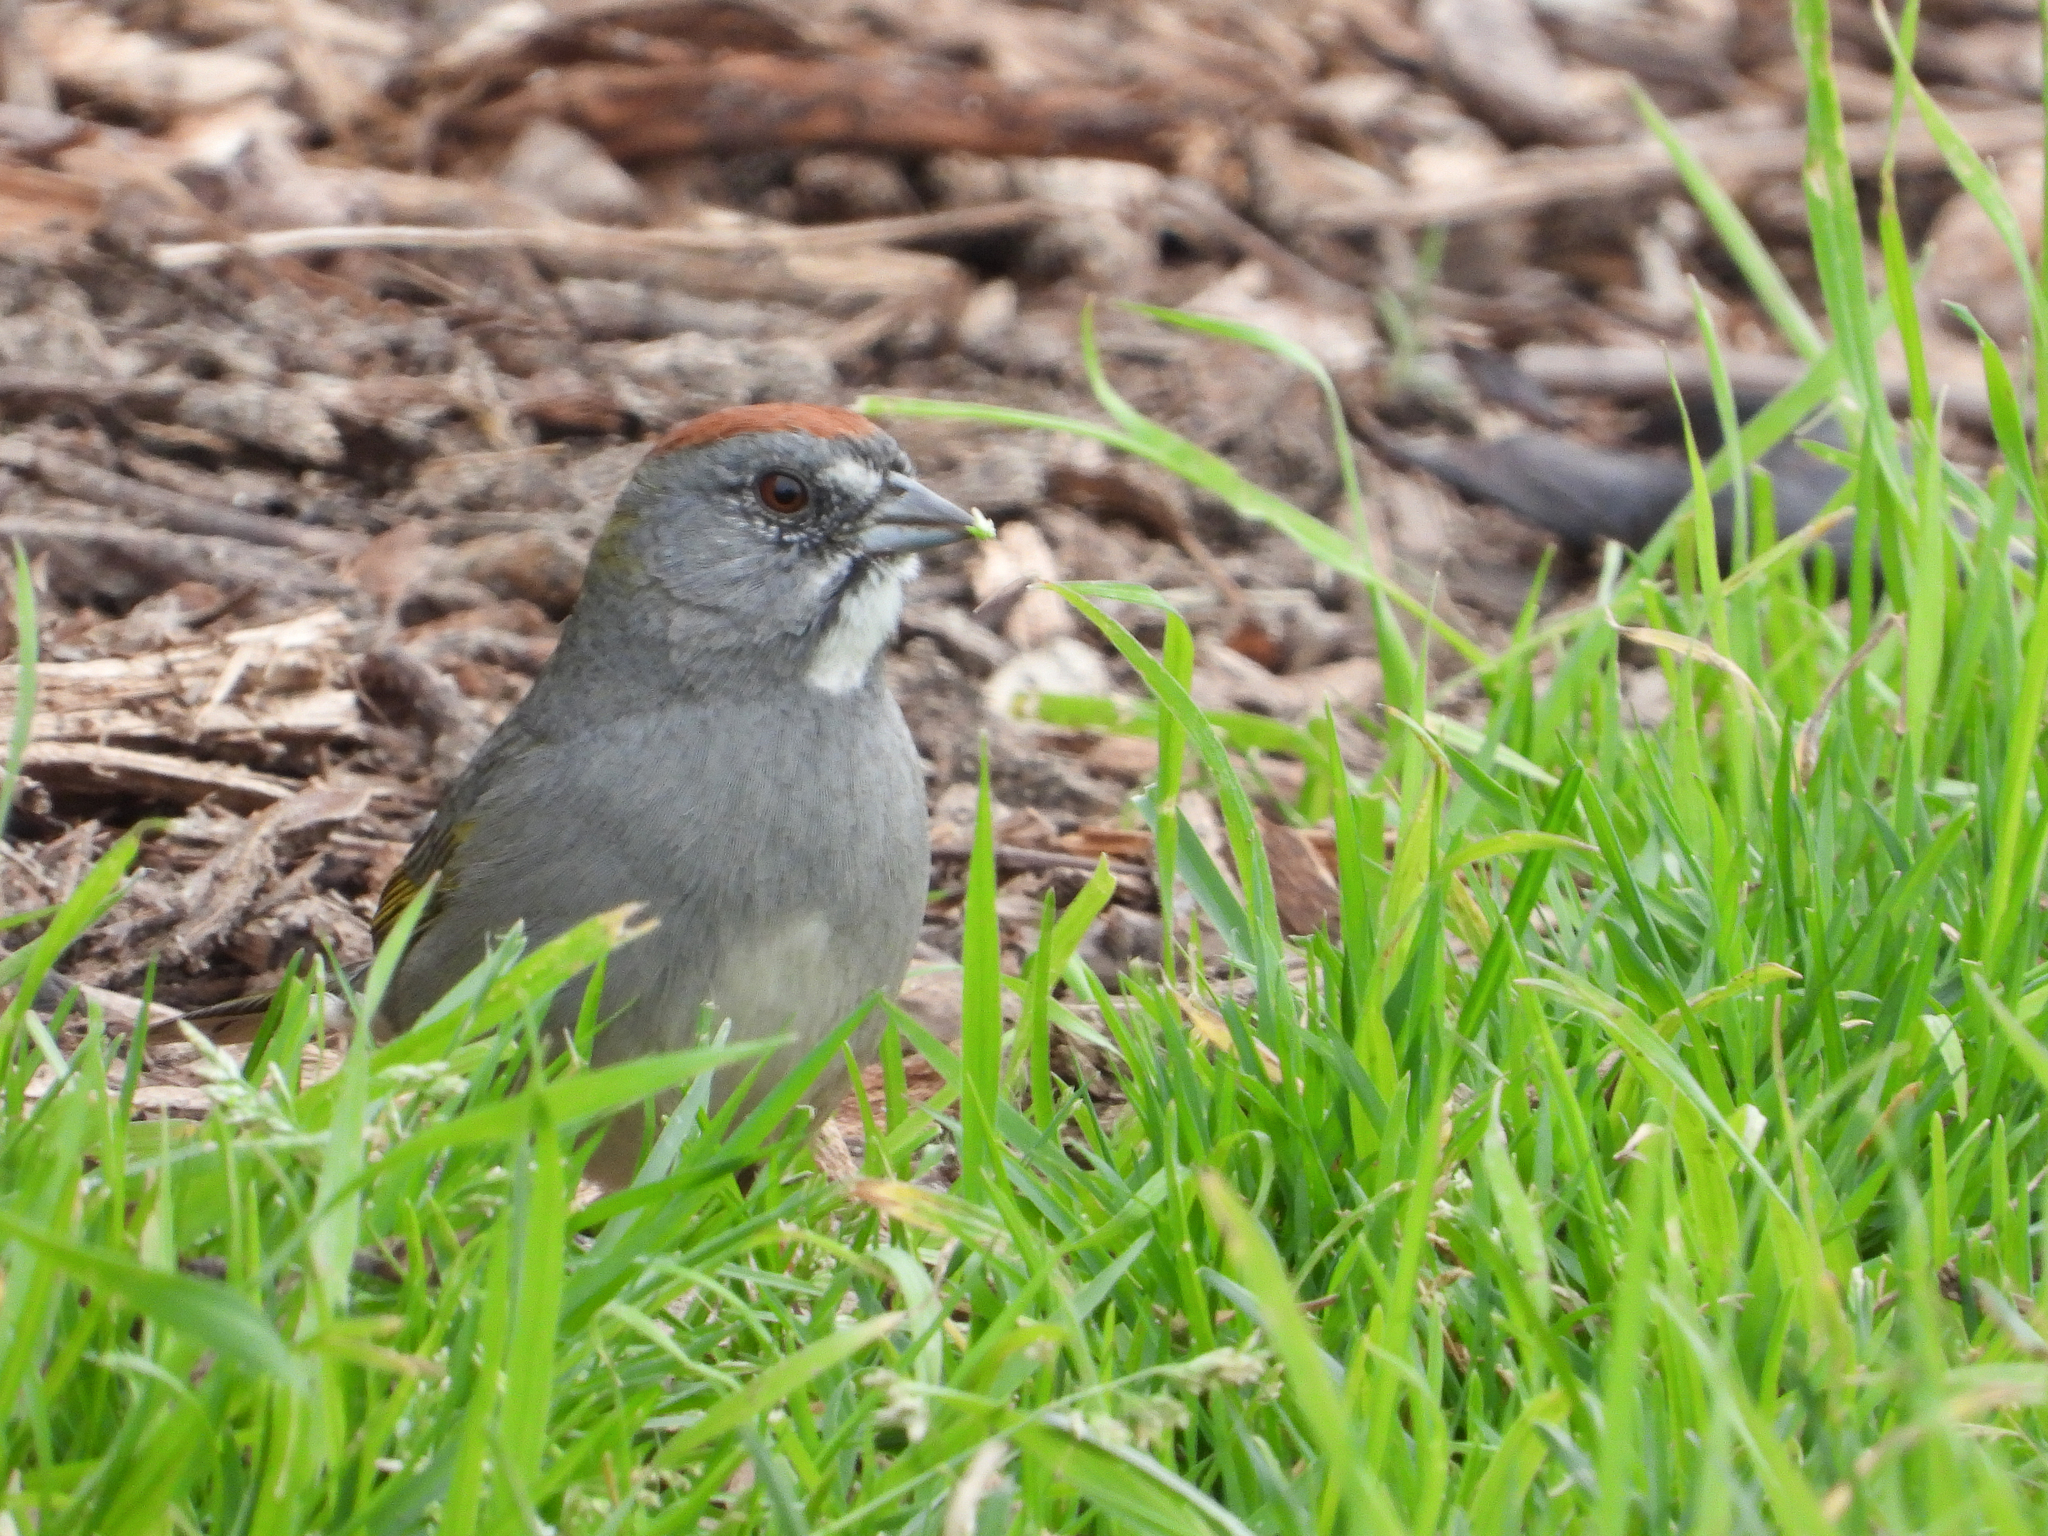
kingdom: Animalia
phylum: Chordata
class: Aves
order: Passeriformes
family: Passerellidae
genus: Pipilo
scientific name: Pipilo chlorurus
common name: Green-tailed towhee
